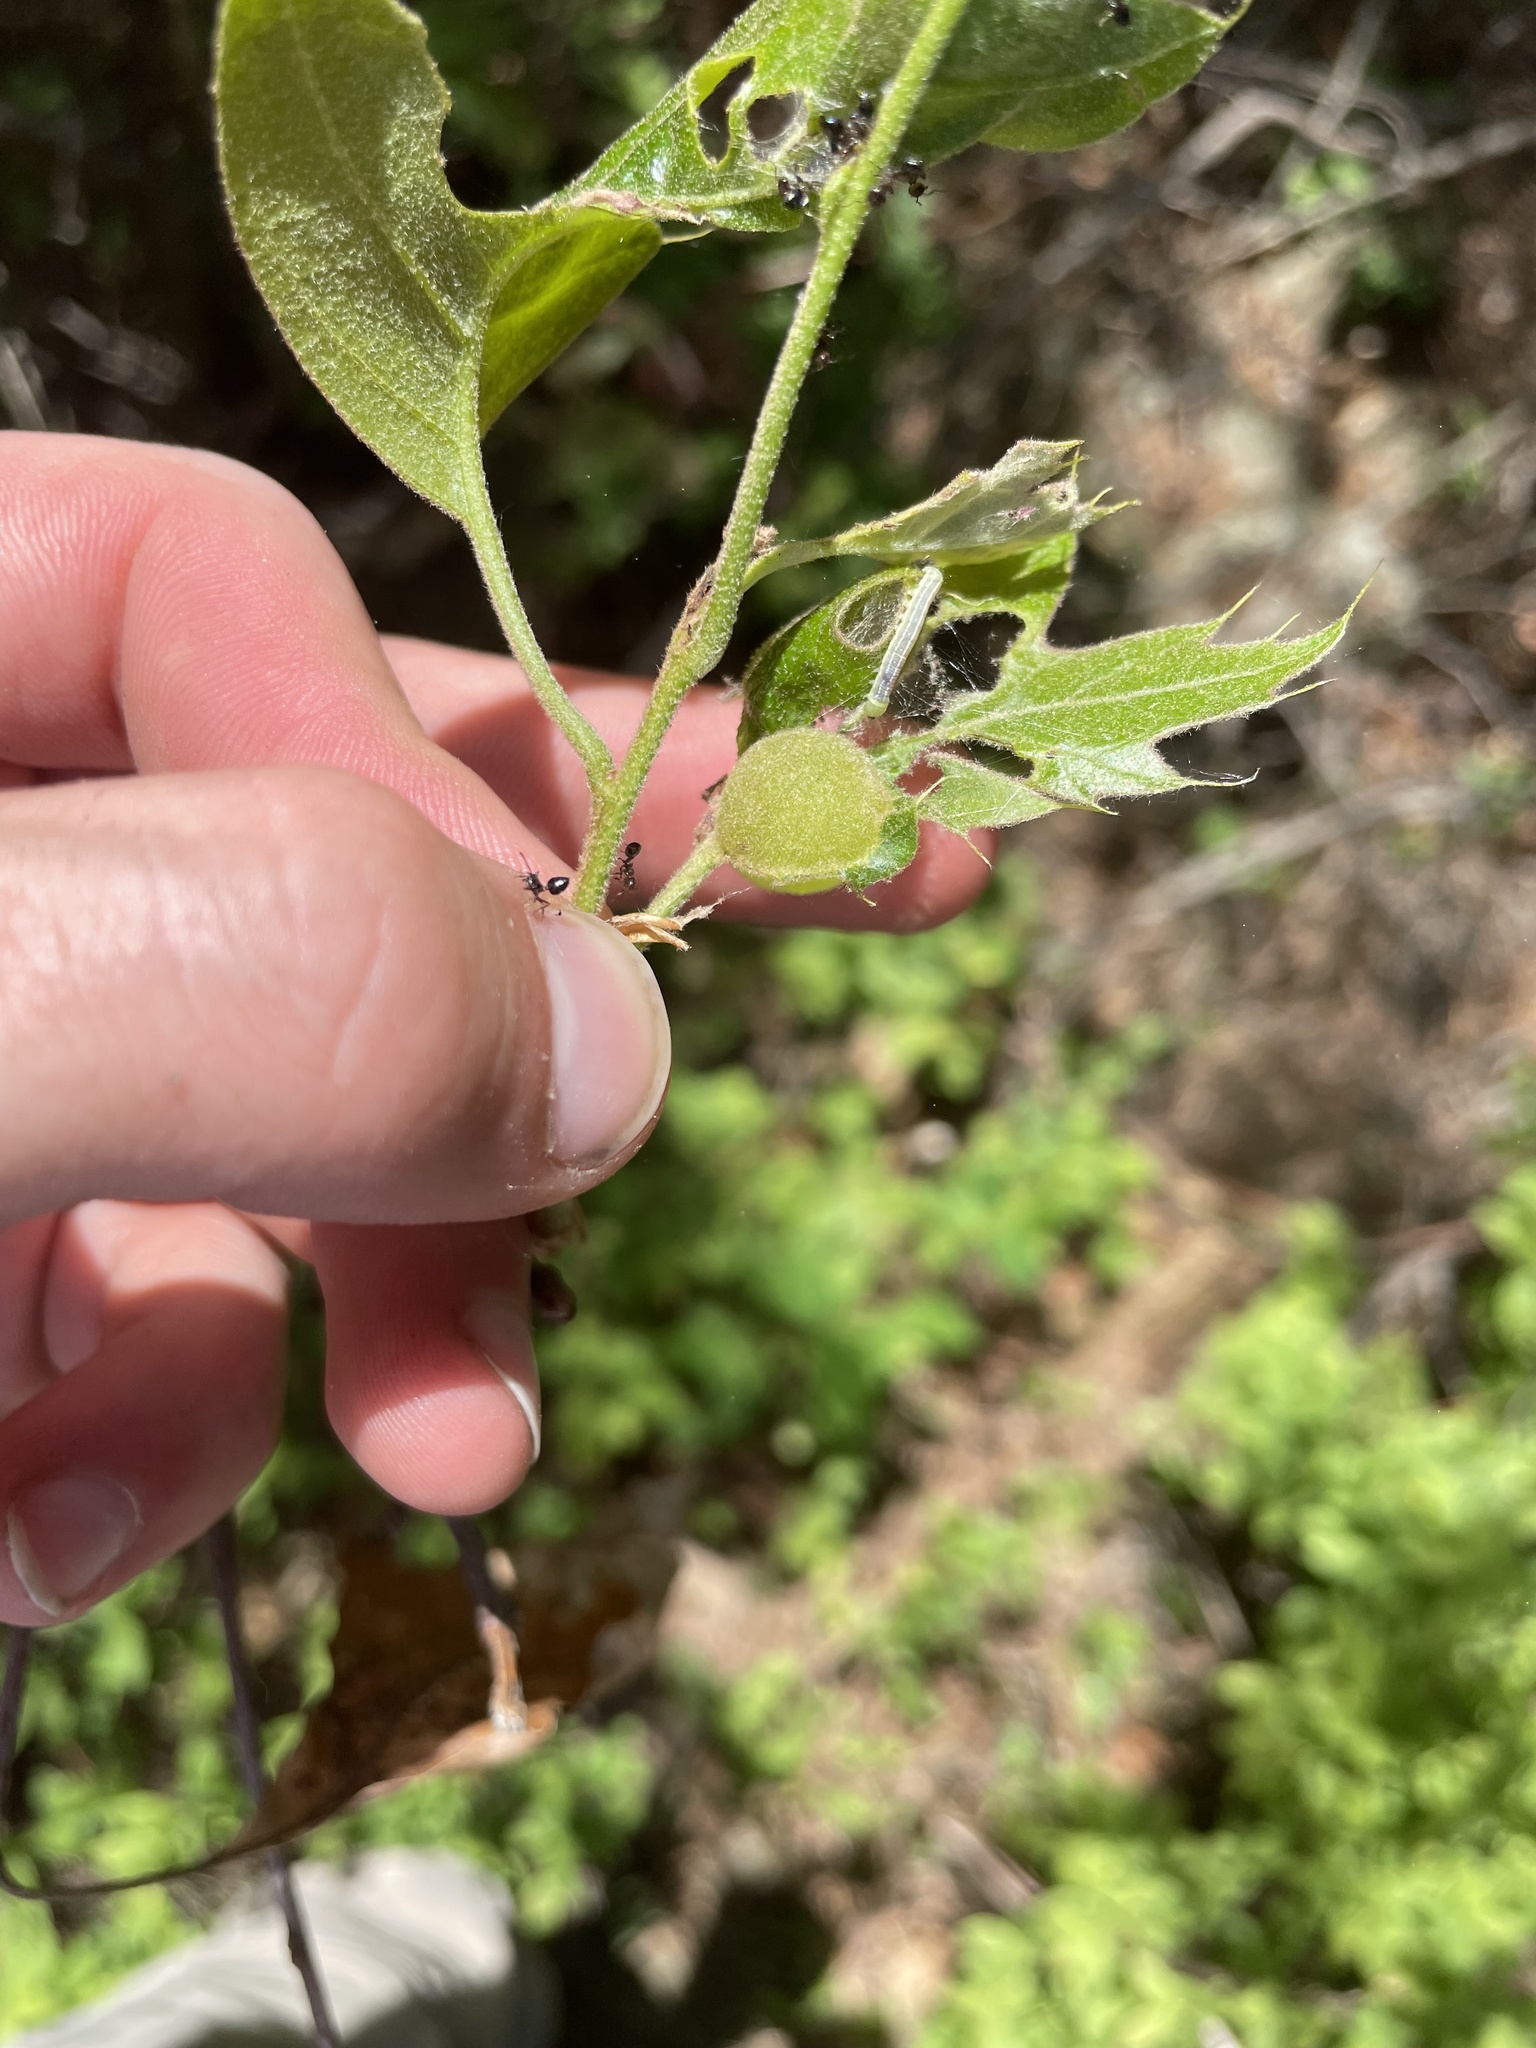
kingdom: Animalia
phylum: Arthropoda
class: Insecta
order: Hymenoptera
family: Cynipidae
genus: Dryocosmus
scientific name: Dryocosmus quercuspalustris
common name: Succulent oak gall wasp
